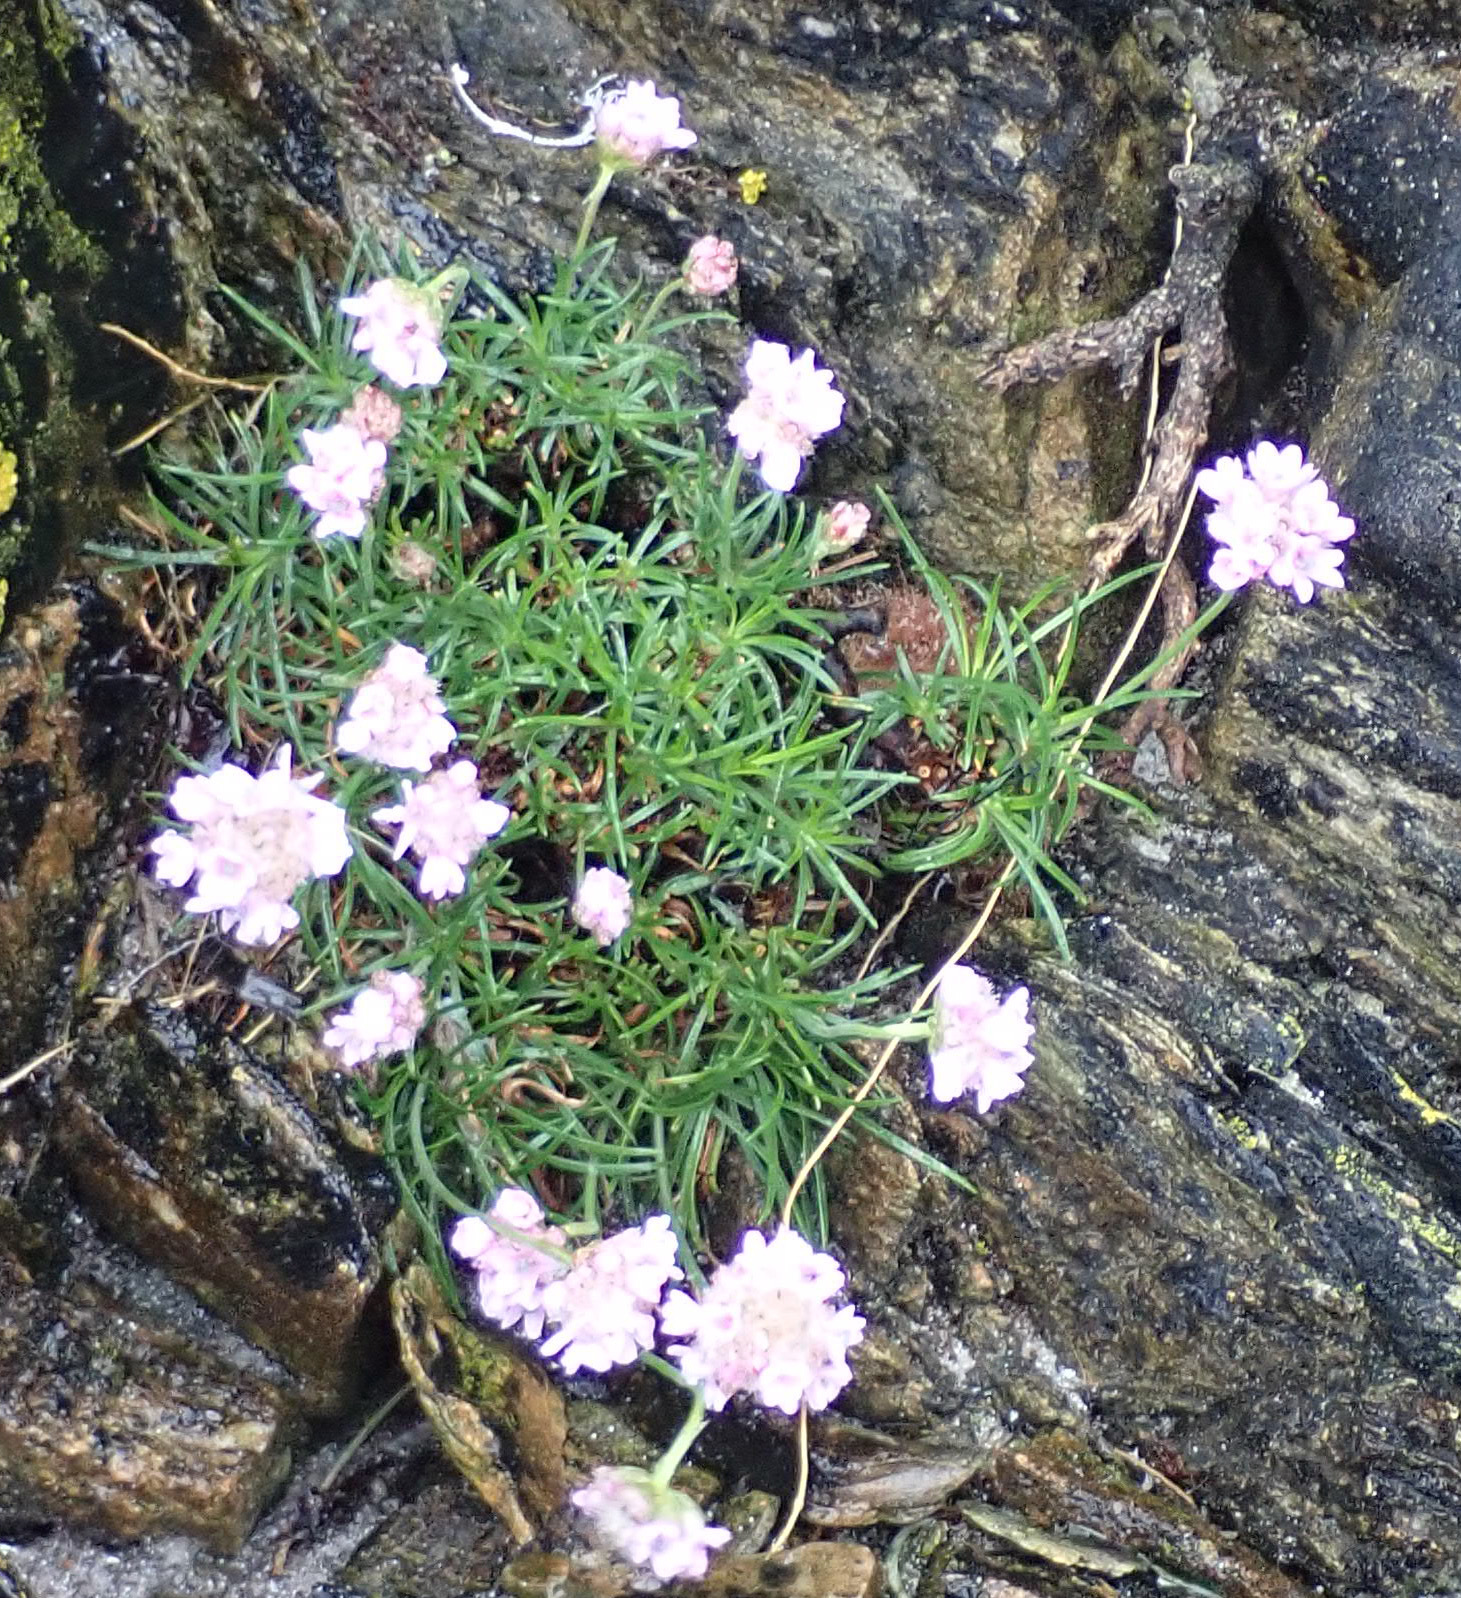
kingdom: Plantae
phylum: Tracheophyta
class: Magnoliopsida
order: Caryophyllales
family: Plumbaginaceae
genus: Armeria
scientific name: Armeria maritima
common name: Thrift
